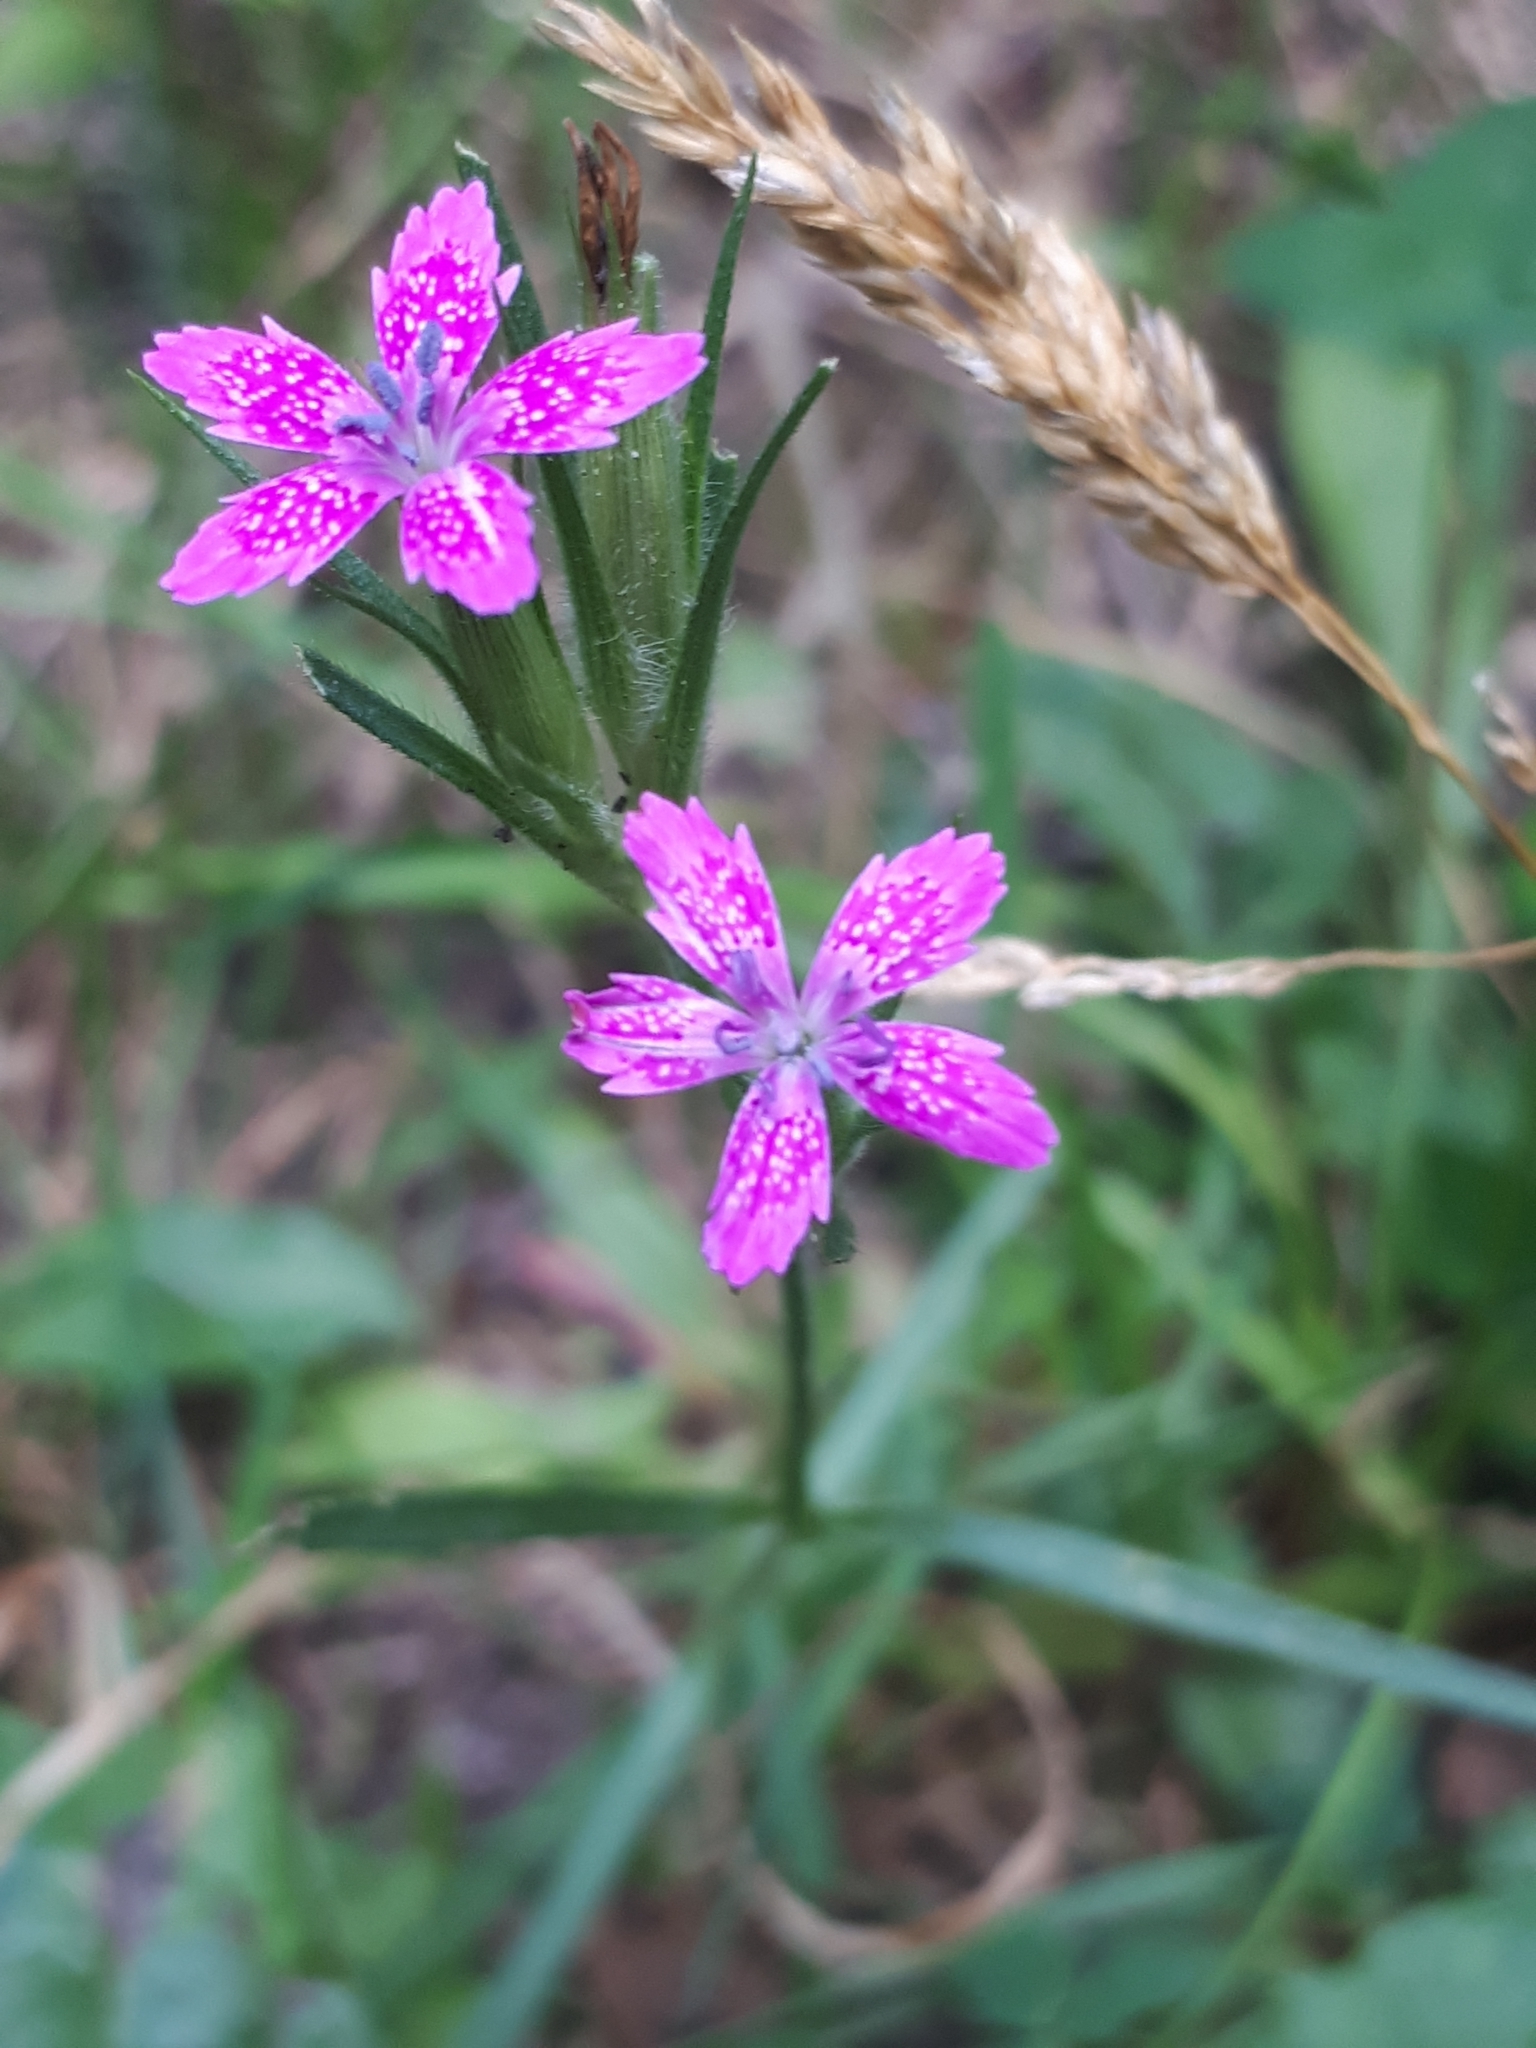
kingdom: Plantae
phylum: Tracheophyta
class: Magnoliopsida
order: Caryophyllales
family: Caryophyllaceae
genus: Dianthus
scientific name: Dianthus armeria
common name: Deptford pink
